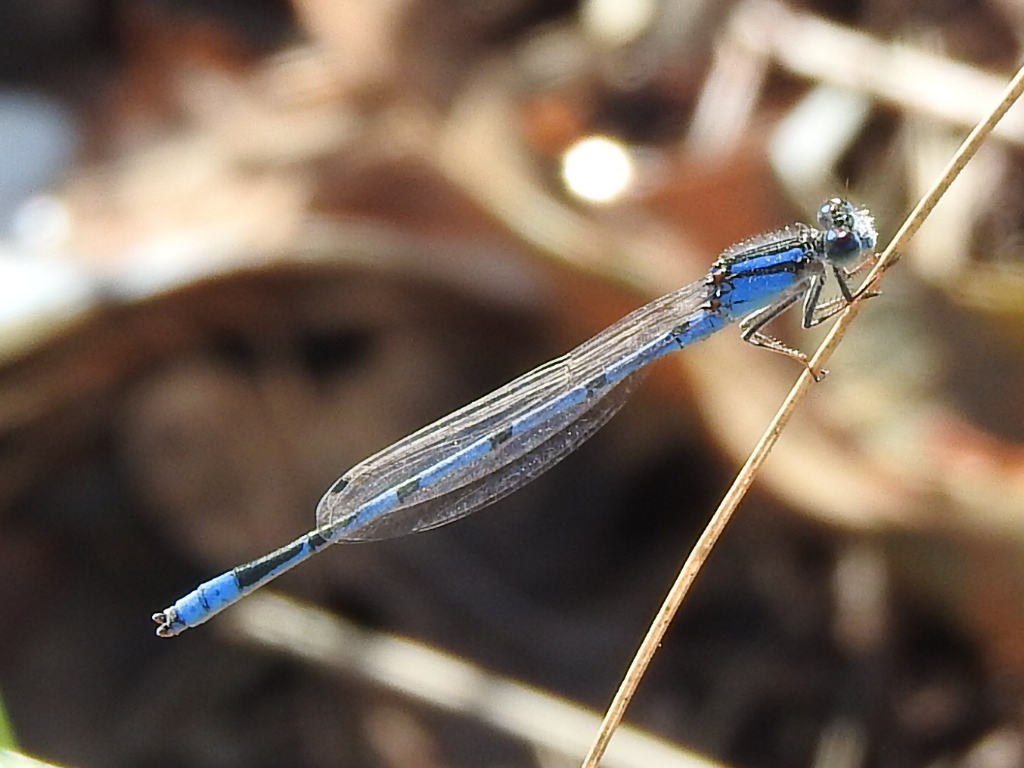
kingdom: Animalia
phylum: Arthropoda
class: Insecta
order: Odonata
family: Coenagrionidae
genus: Enallagma
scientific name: Enallagma civile
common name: Damselfly
